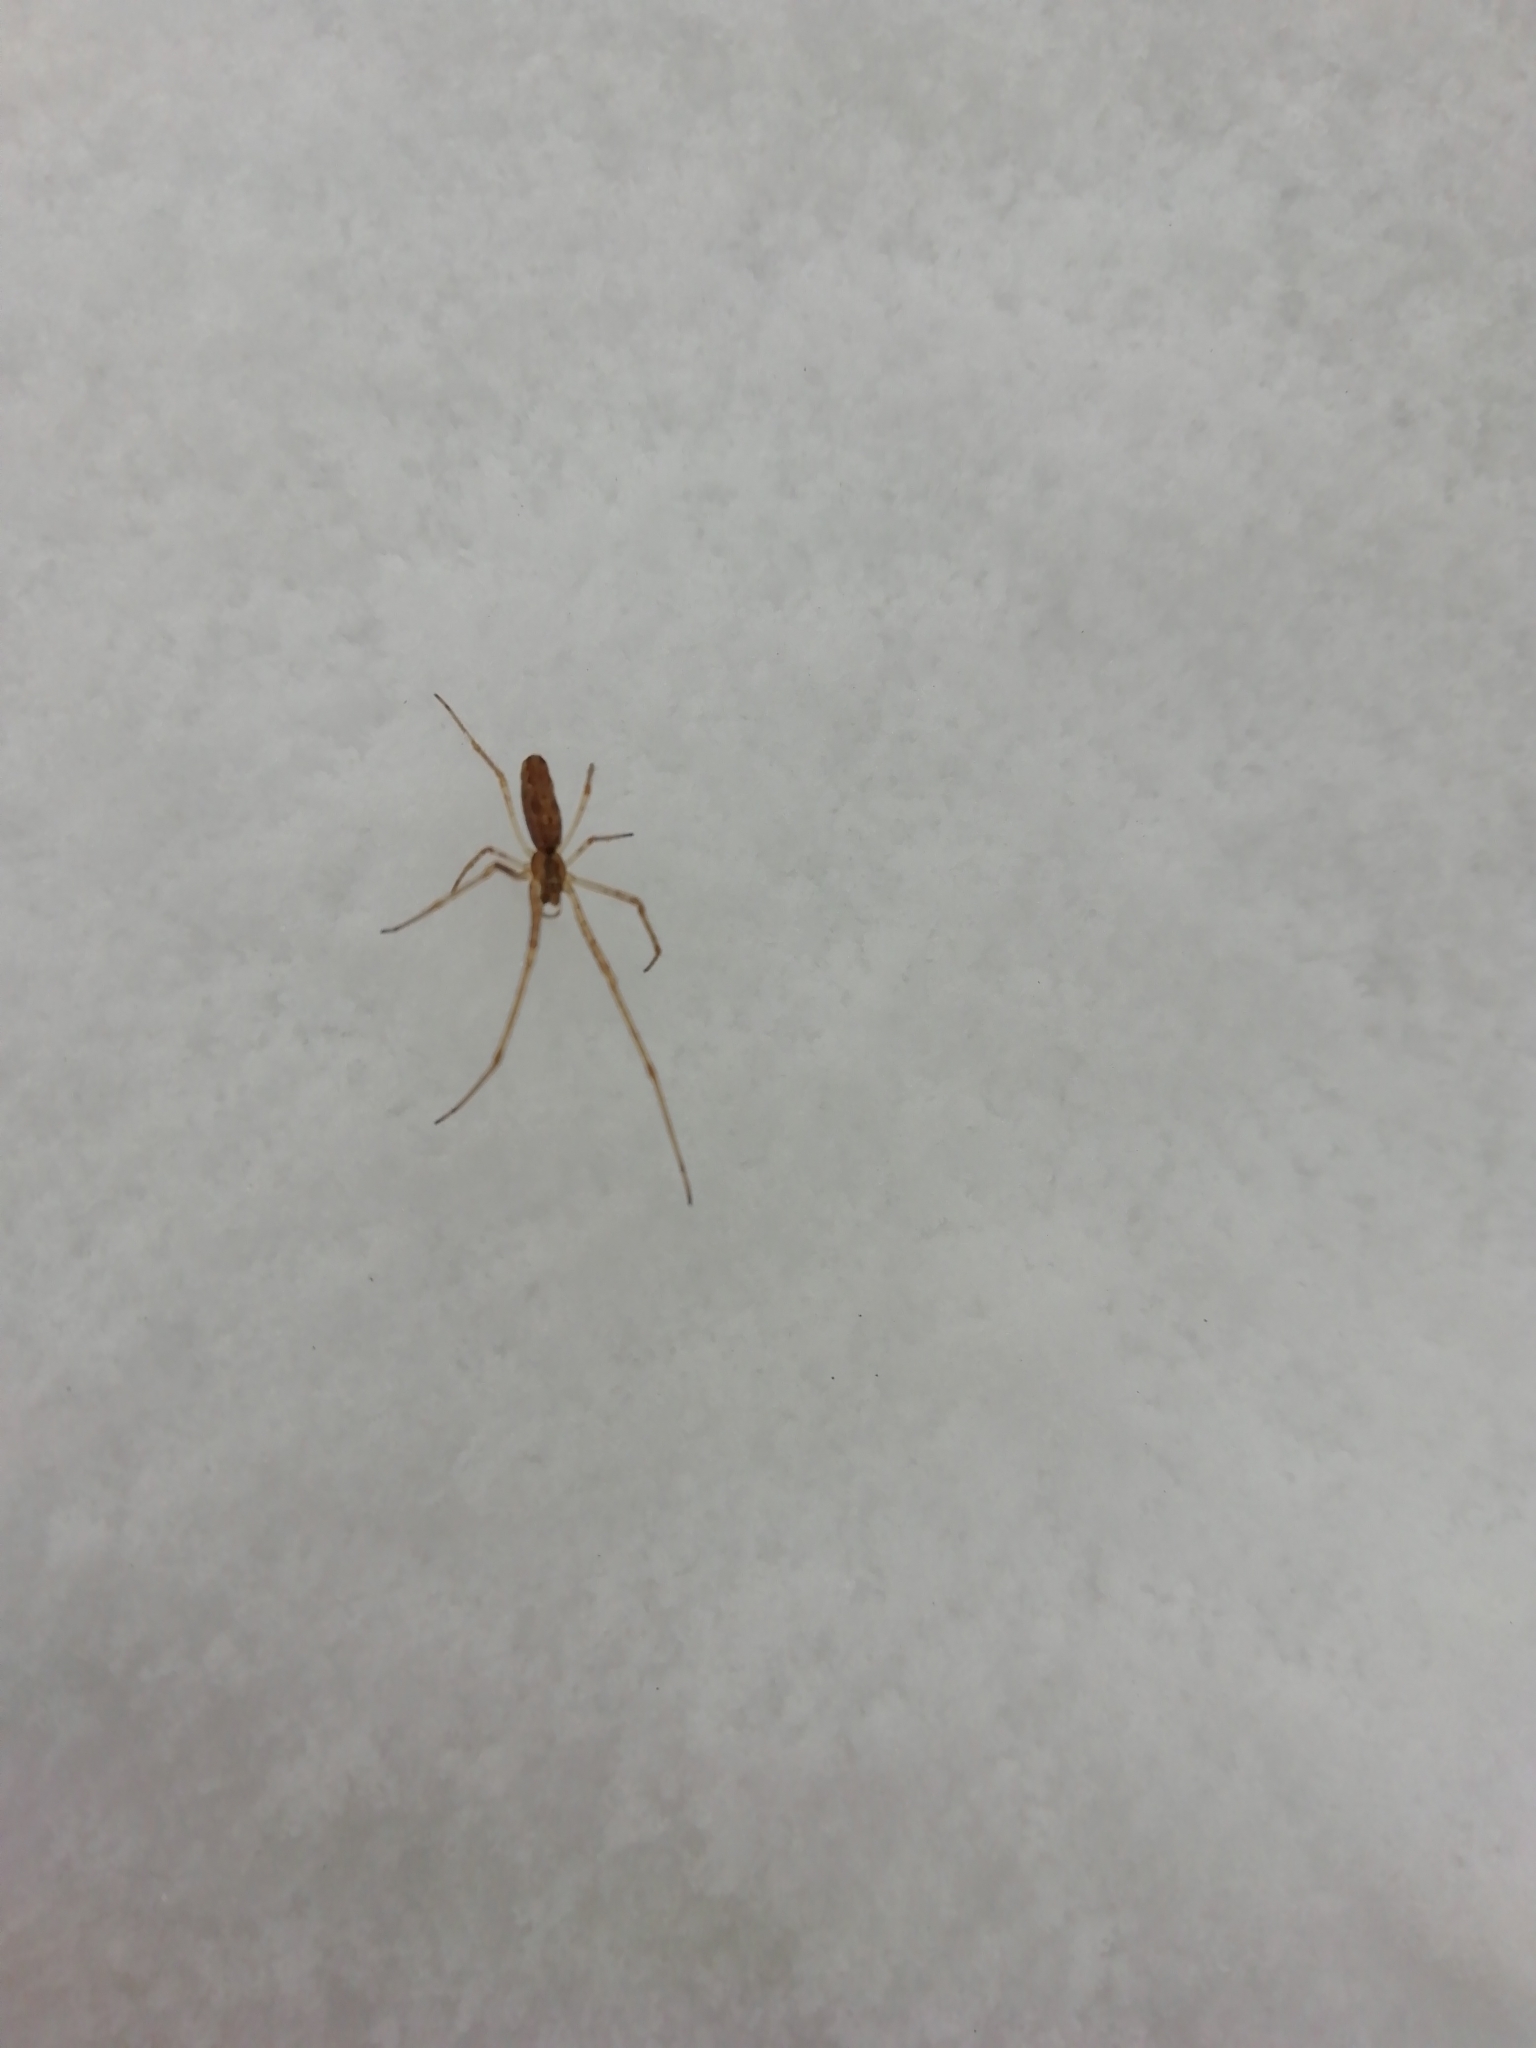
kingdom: Animalia
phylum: Arthropoda
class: Arachnida
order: Araneae
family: Tetragnathidae
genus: Tetragnatha
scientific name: Tetragnatha
